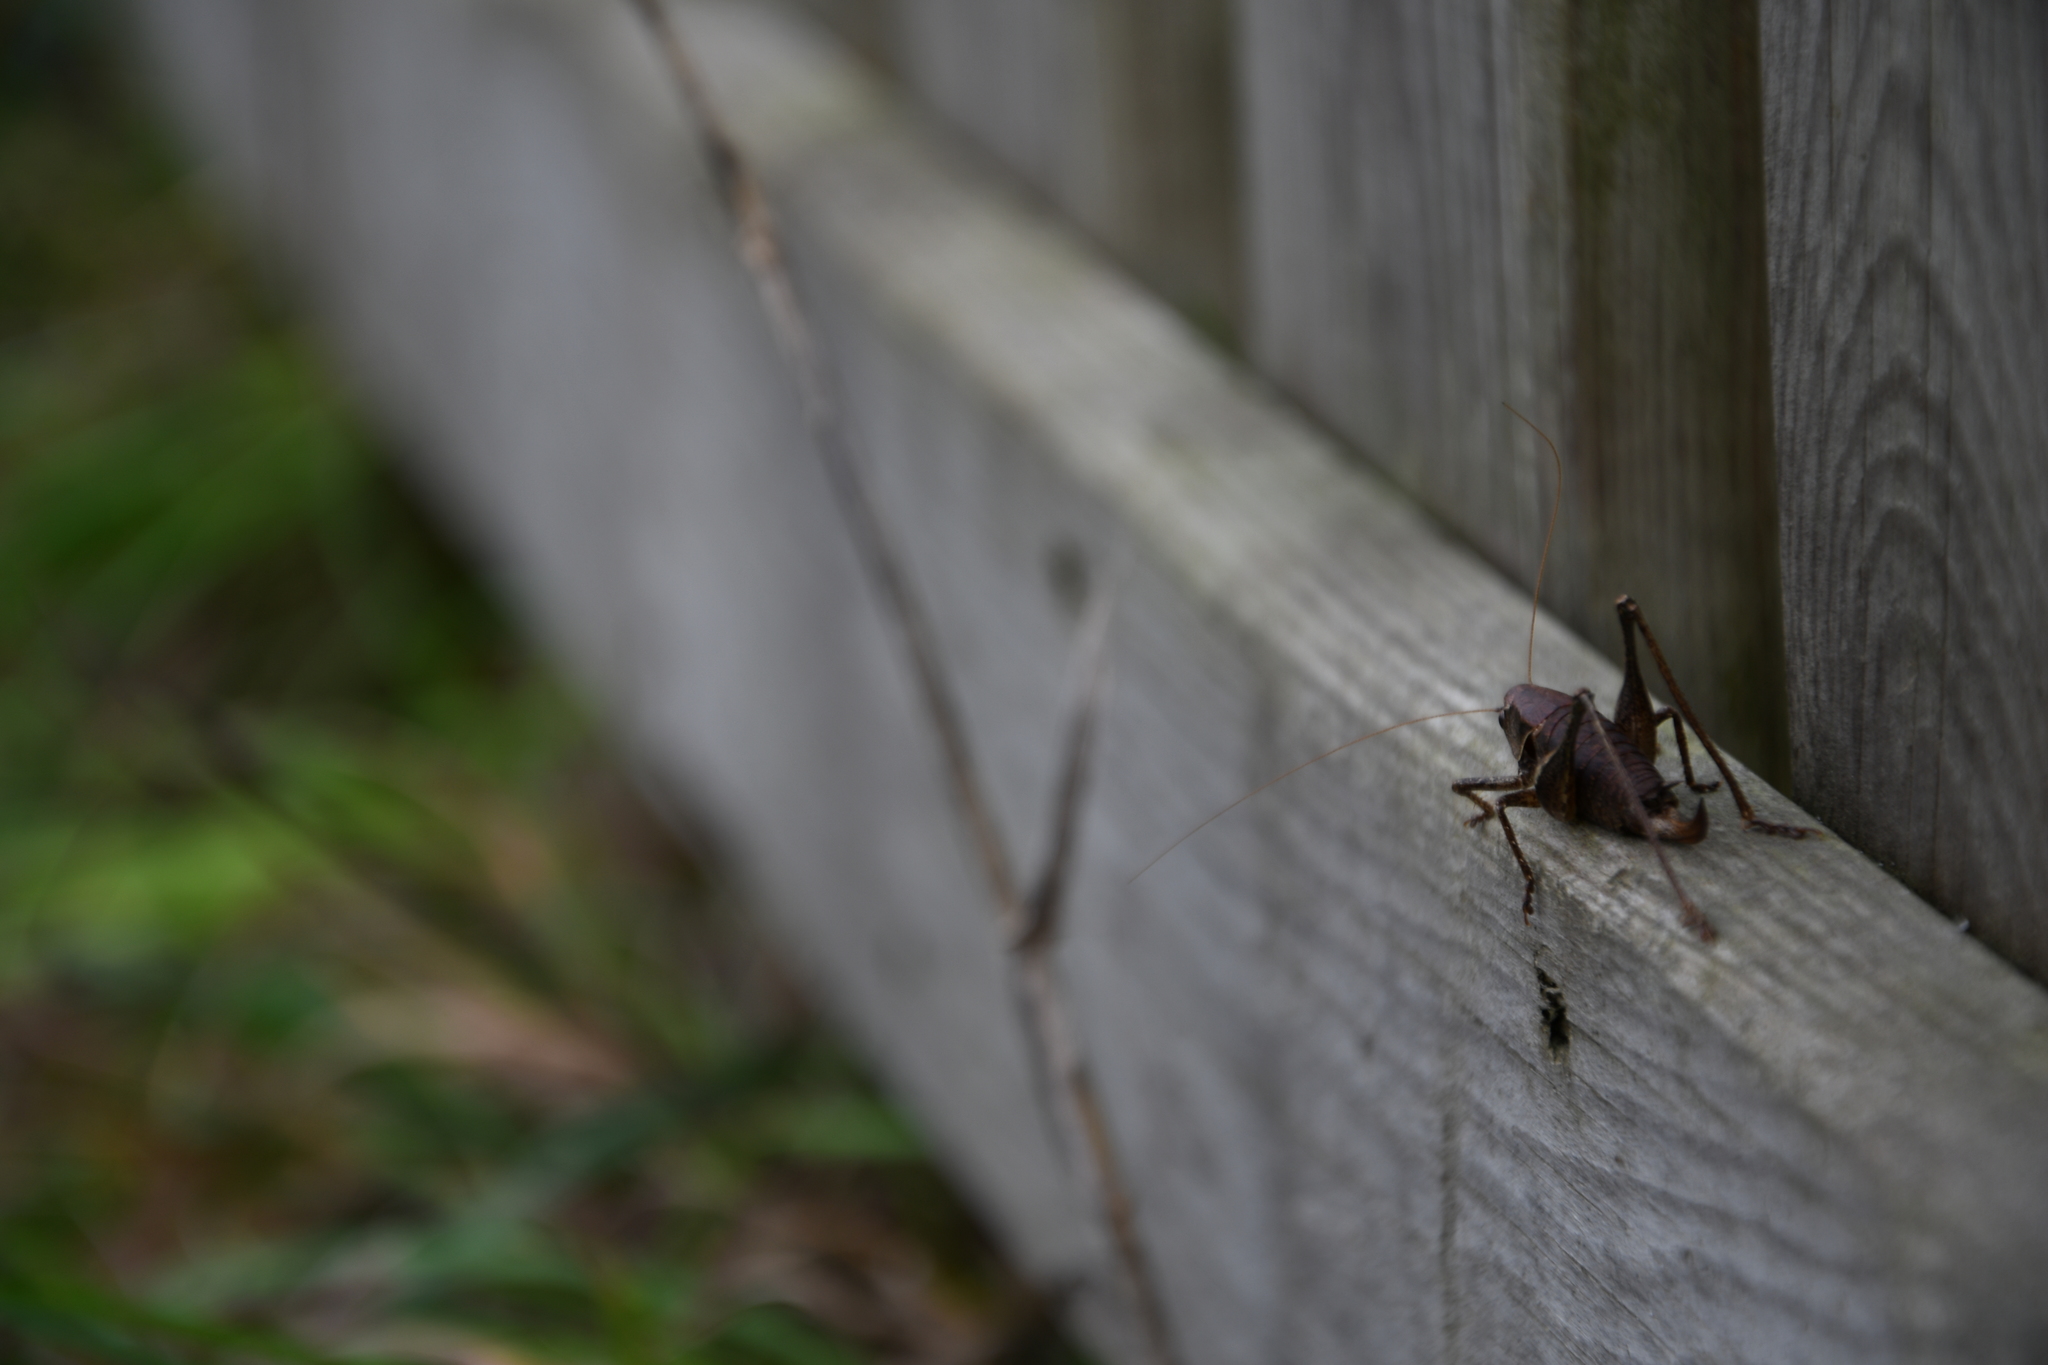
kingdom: Animalia
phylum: Arthropoda
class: Insecta
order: Orthoptera
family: Tettigoniidae
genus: Pholidoptera
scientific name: Pholidoptera griseoaptera
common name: Dark bush-cricket
